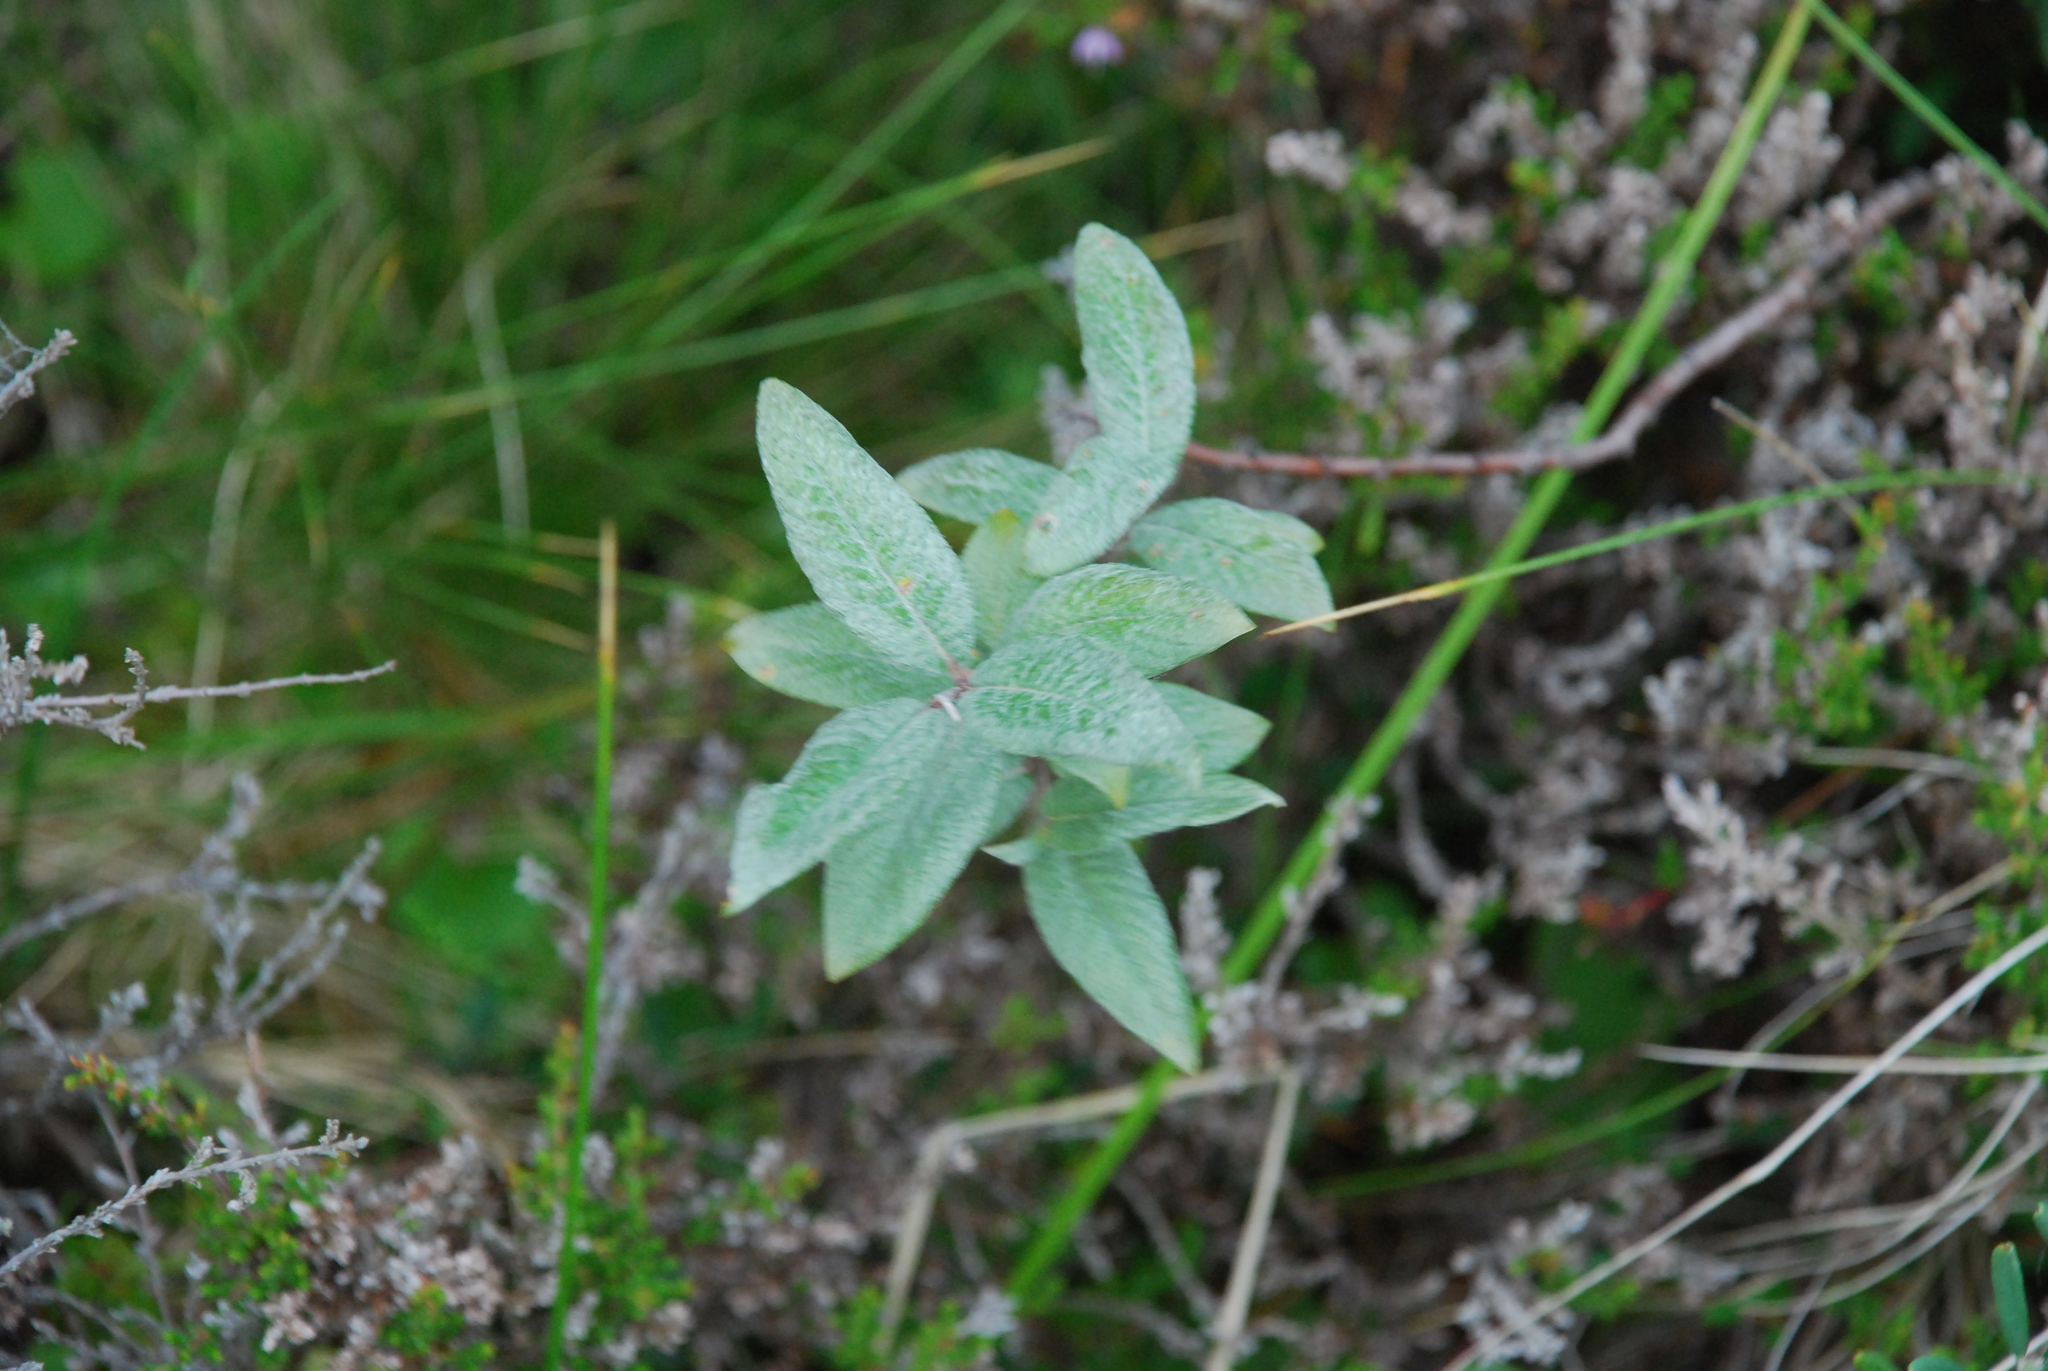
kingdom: Plantae
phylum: Tracheophyta
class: Magnoliopsida
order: Malpighiales
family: Salicaceae
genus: Salix
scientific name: Salix lapponum
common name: Downy willow
